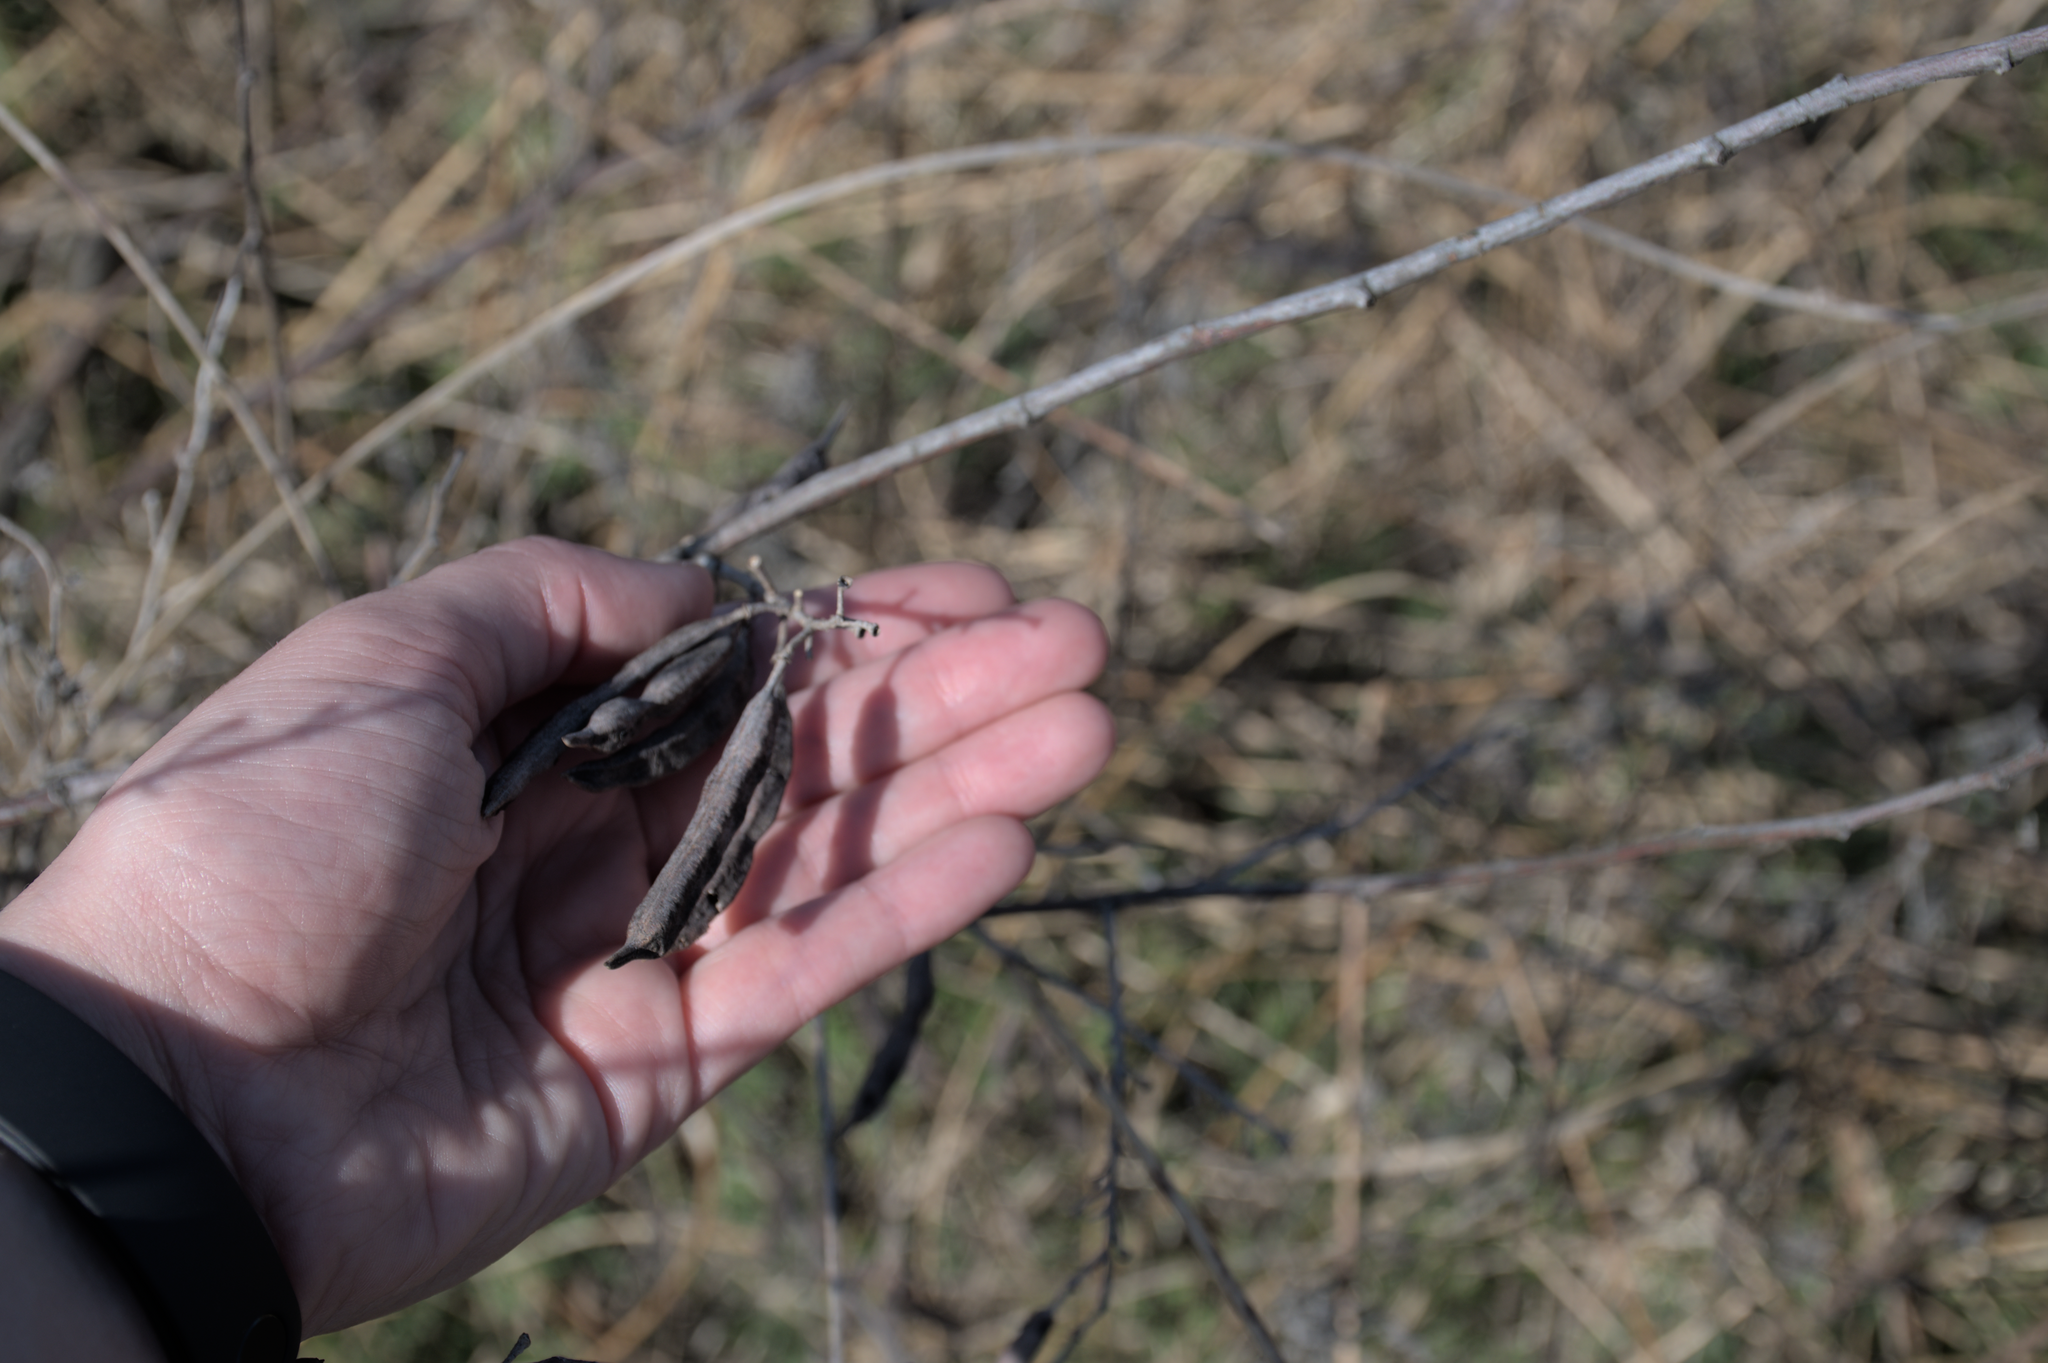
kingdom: Plantae
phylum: Tracheophyta
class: Magnoliopsida
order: Fabales
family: Fabaceae
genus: Sesbania
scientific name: Sesbania virgata
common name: Wand riverhemp
